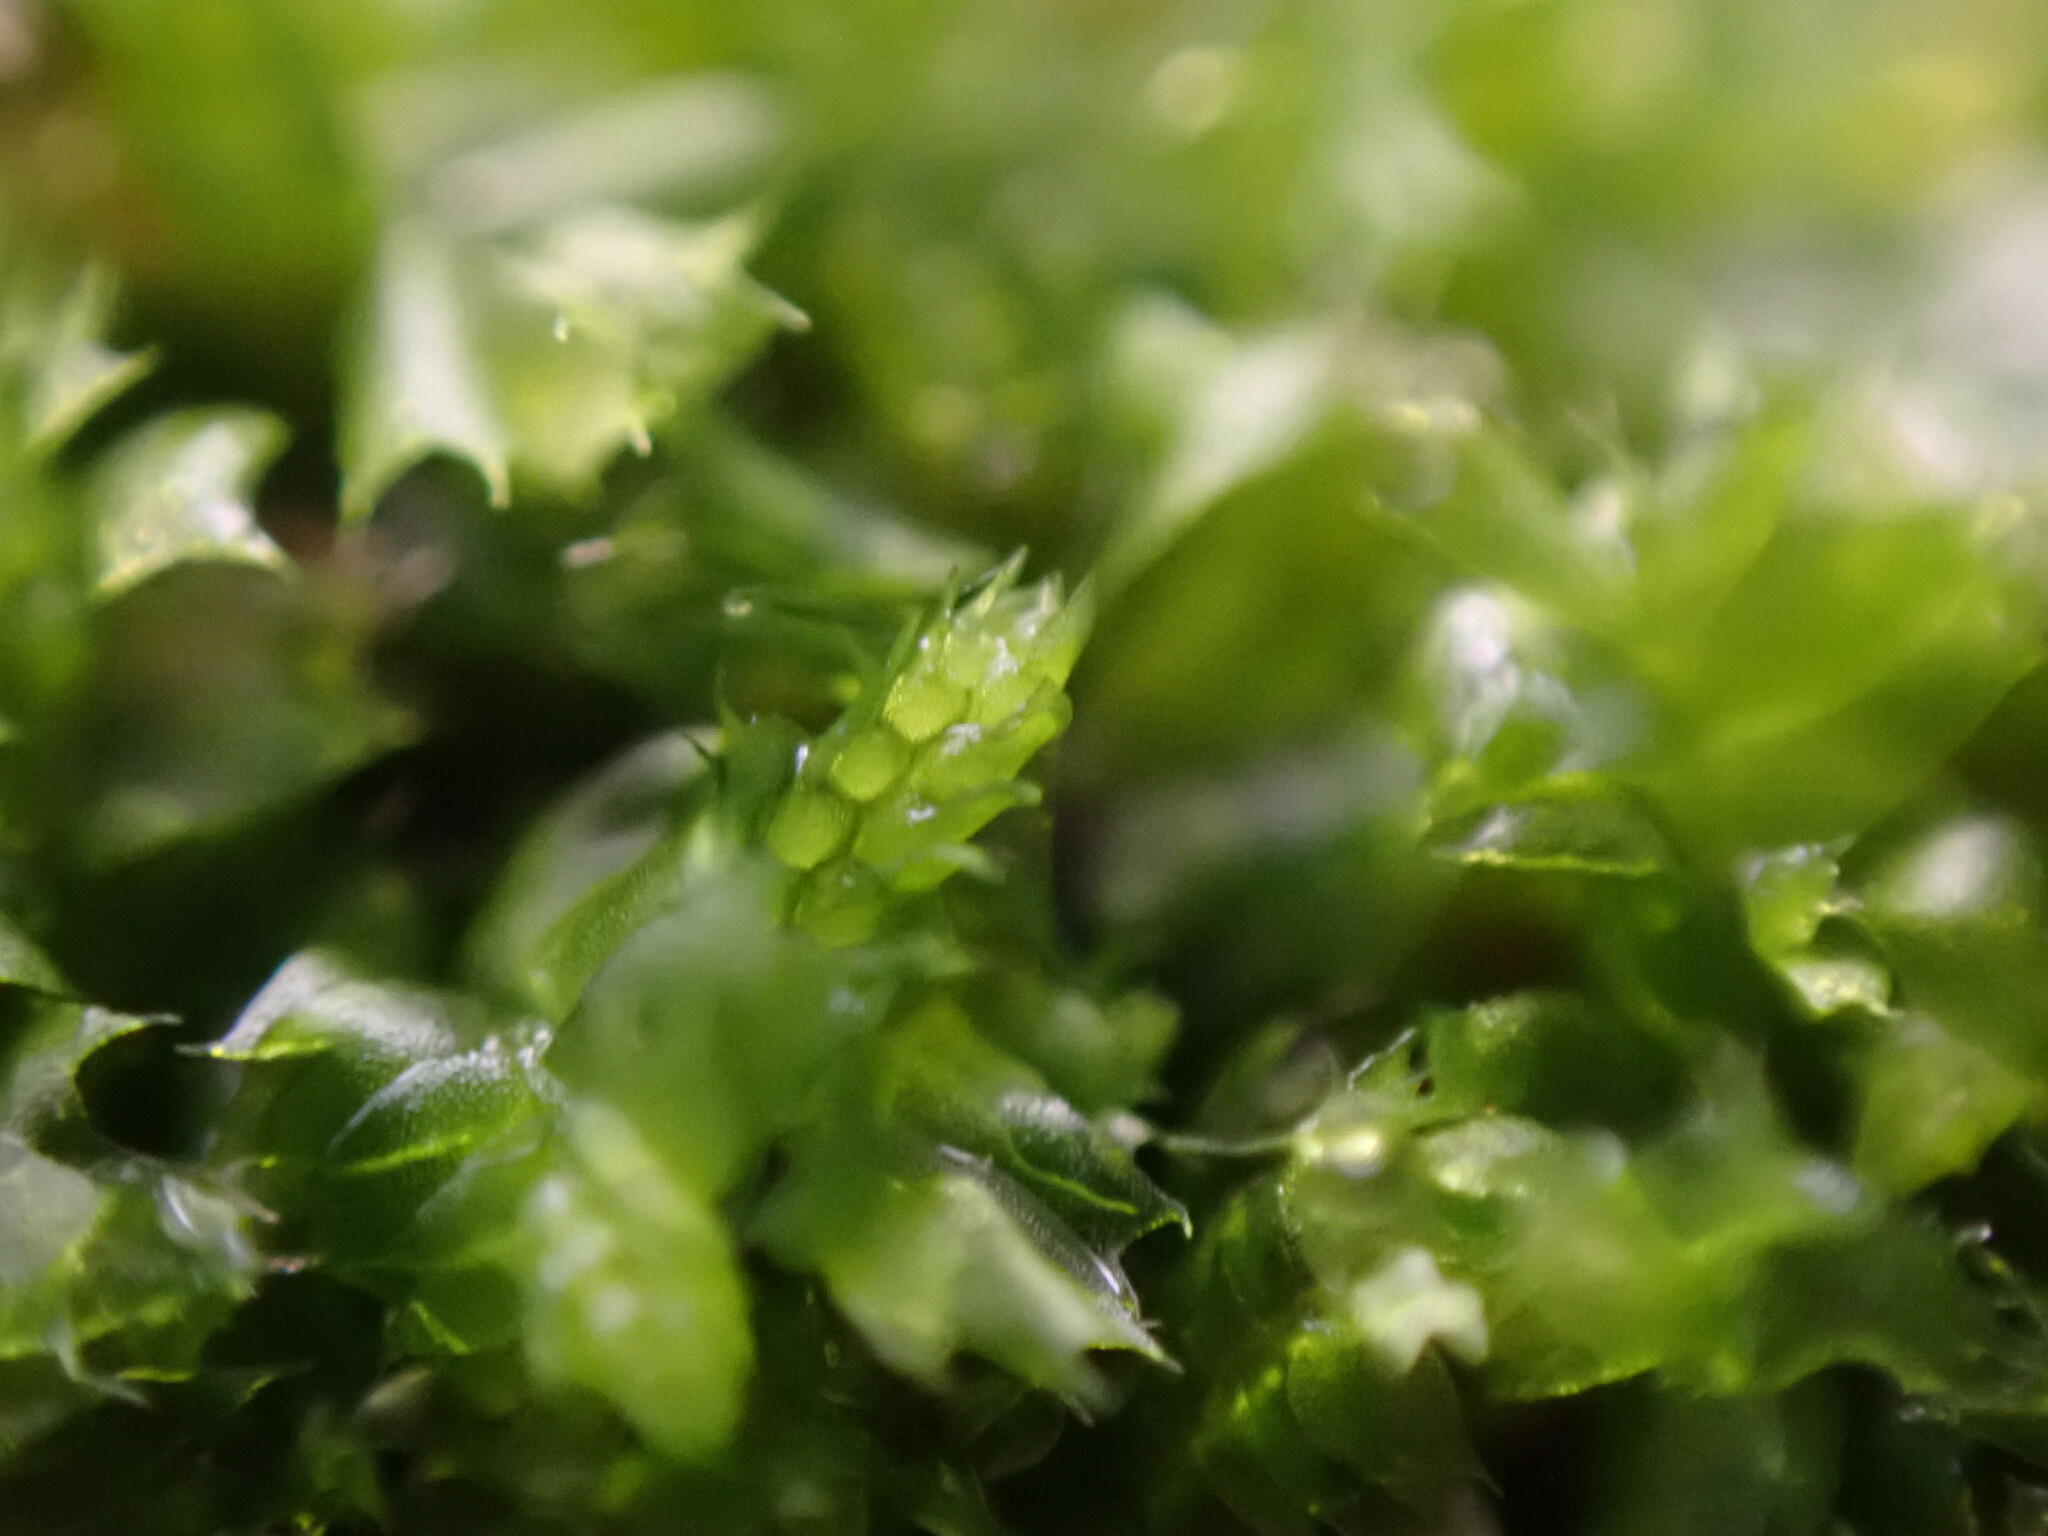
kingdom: Plantae
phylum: Marchantiophyta
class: Jungermanniopsida
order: Jungermanniales
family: Lophocoleaceae
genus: Lophocolea
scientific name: Lophocolea bidentata
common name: Bifid crestwort
